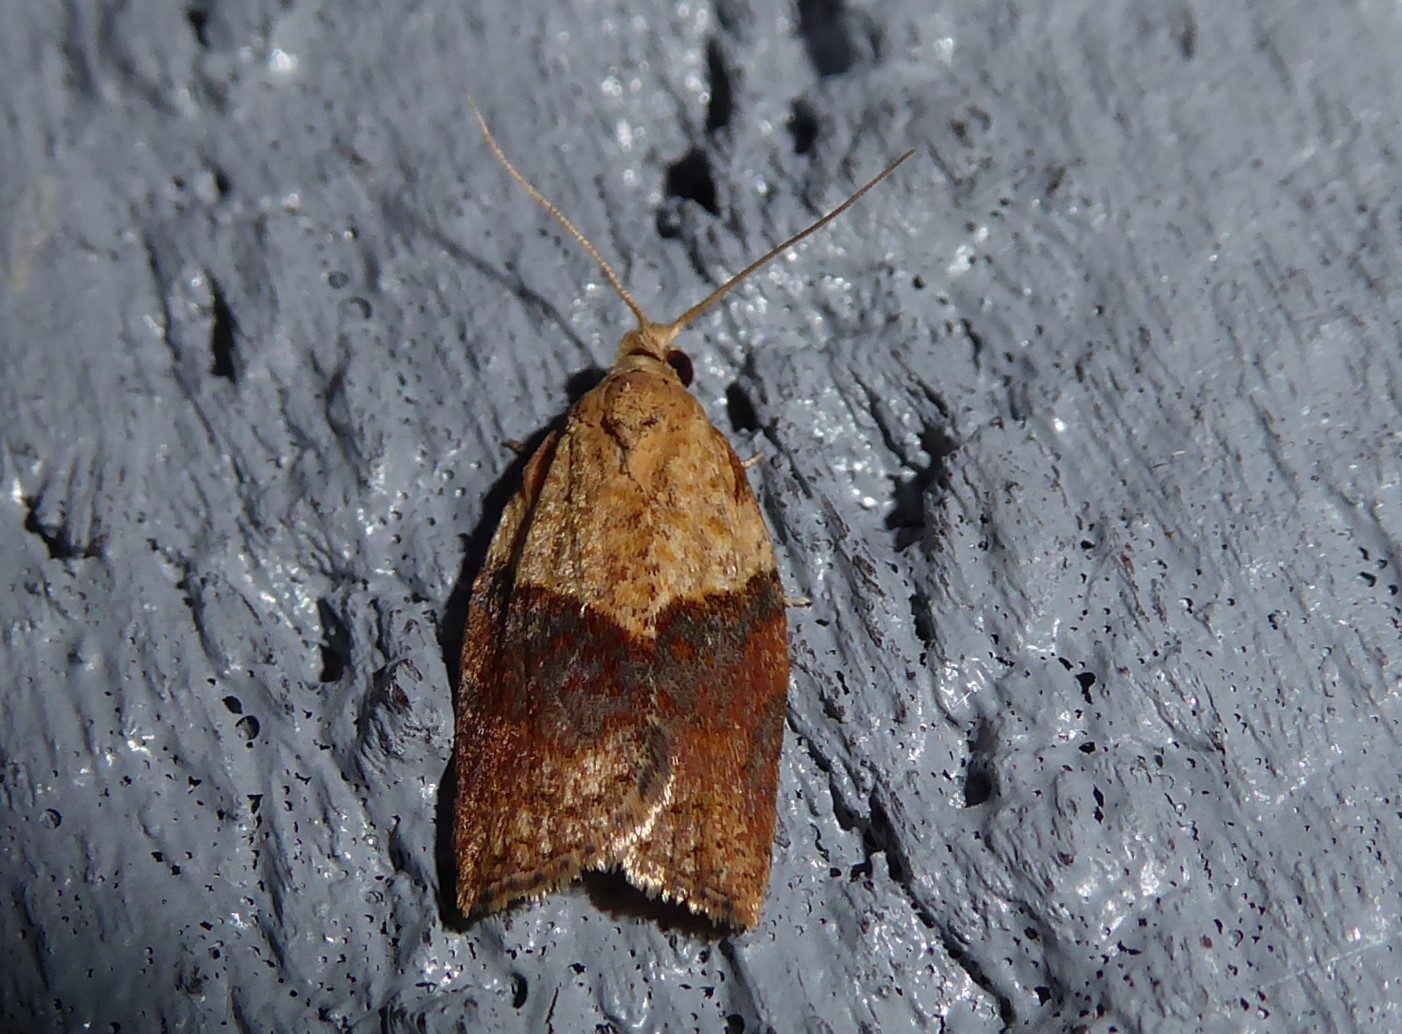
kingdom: Animalia
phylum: Arthropoda
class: Insecta
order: Lepidoptera
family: Tortricidae
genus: Epiphyas
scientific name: Epiphyas postvittana
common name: Light brown apple moth
